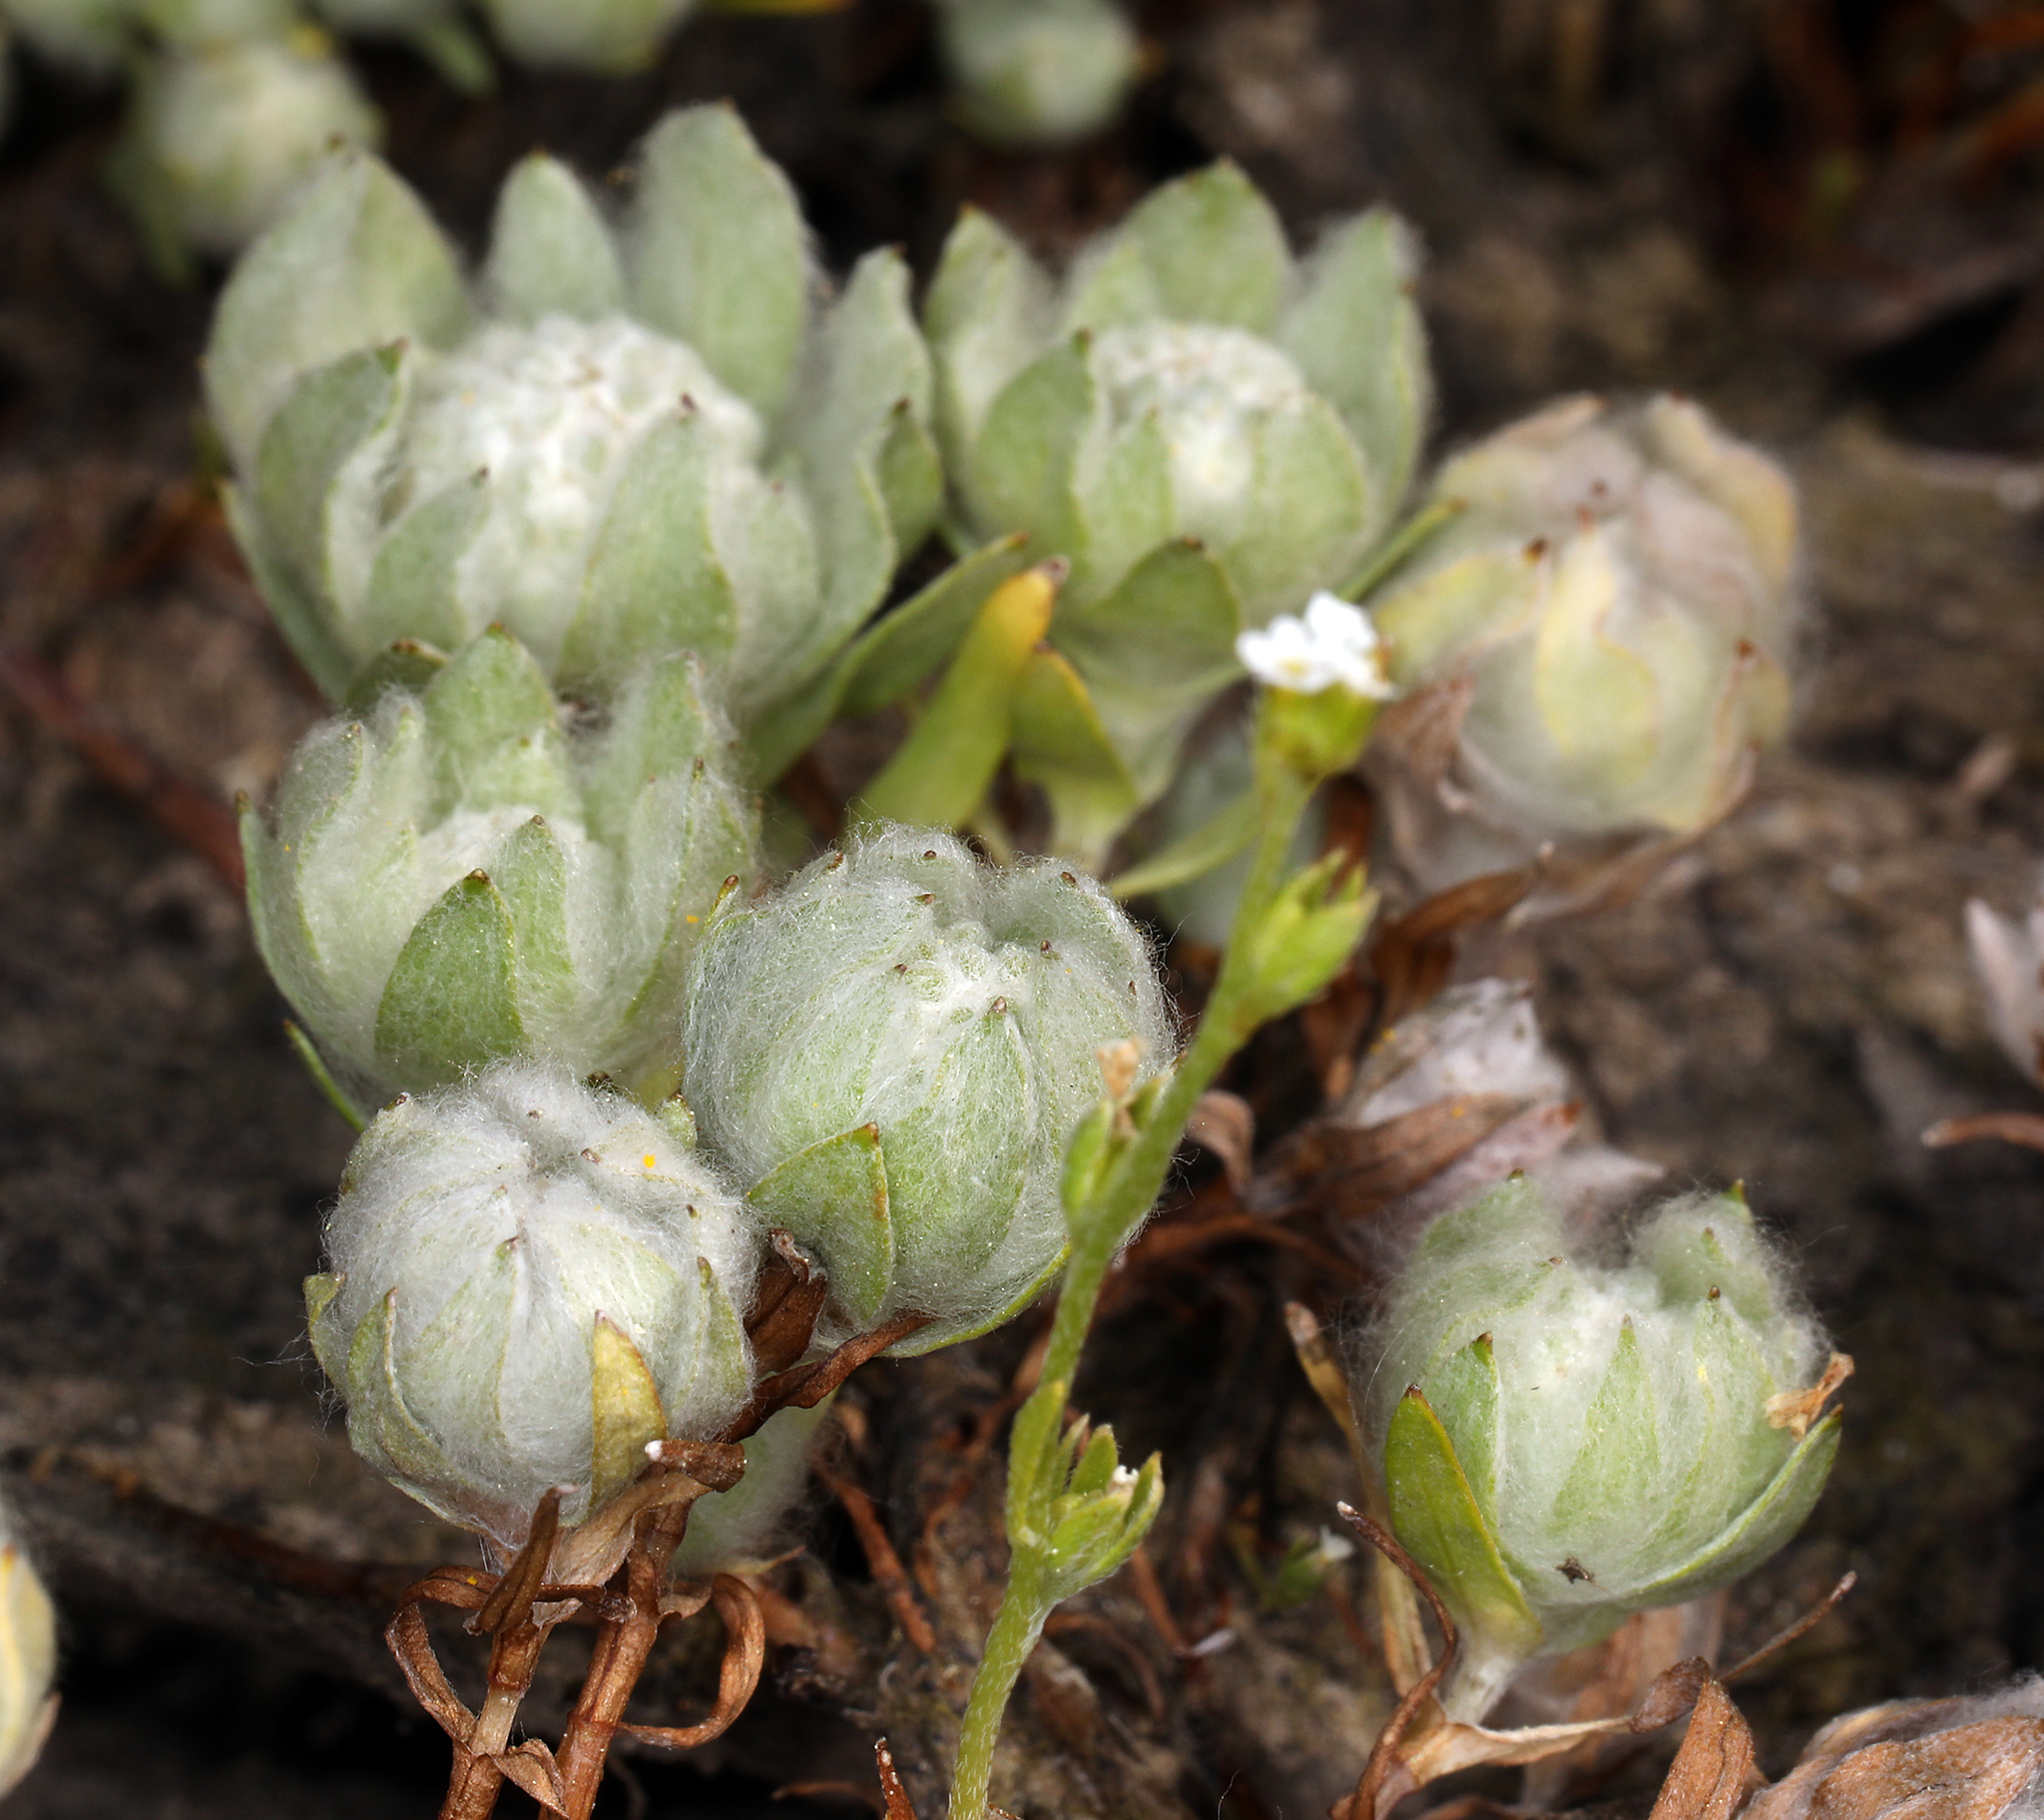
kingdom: Plantae
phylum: Tracheophyta
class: Magnoliopsida
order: Asterales
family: Asteraceae
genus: Psilocarphus
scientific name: Psilocarphus brevissimus
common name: Dwarf woollyheads
